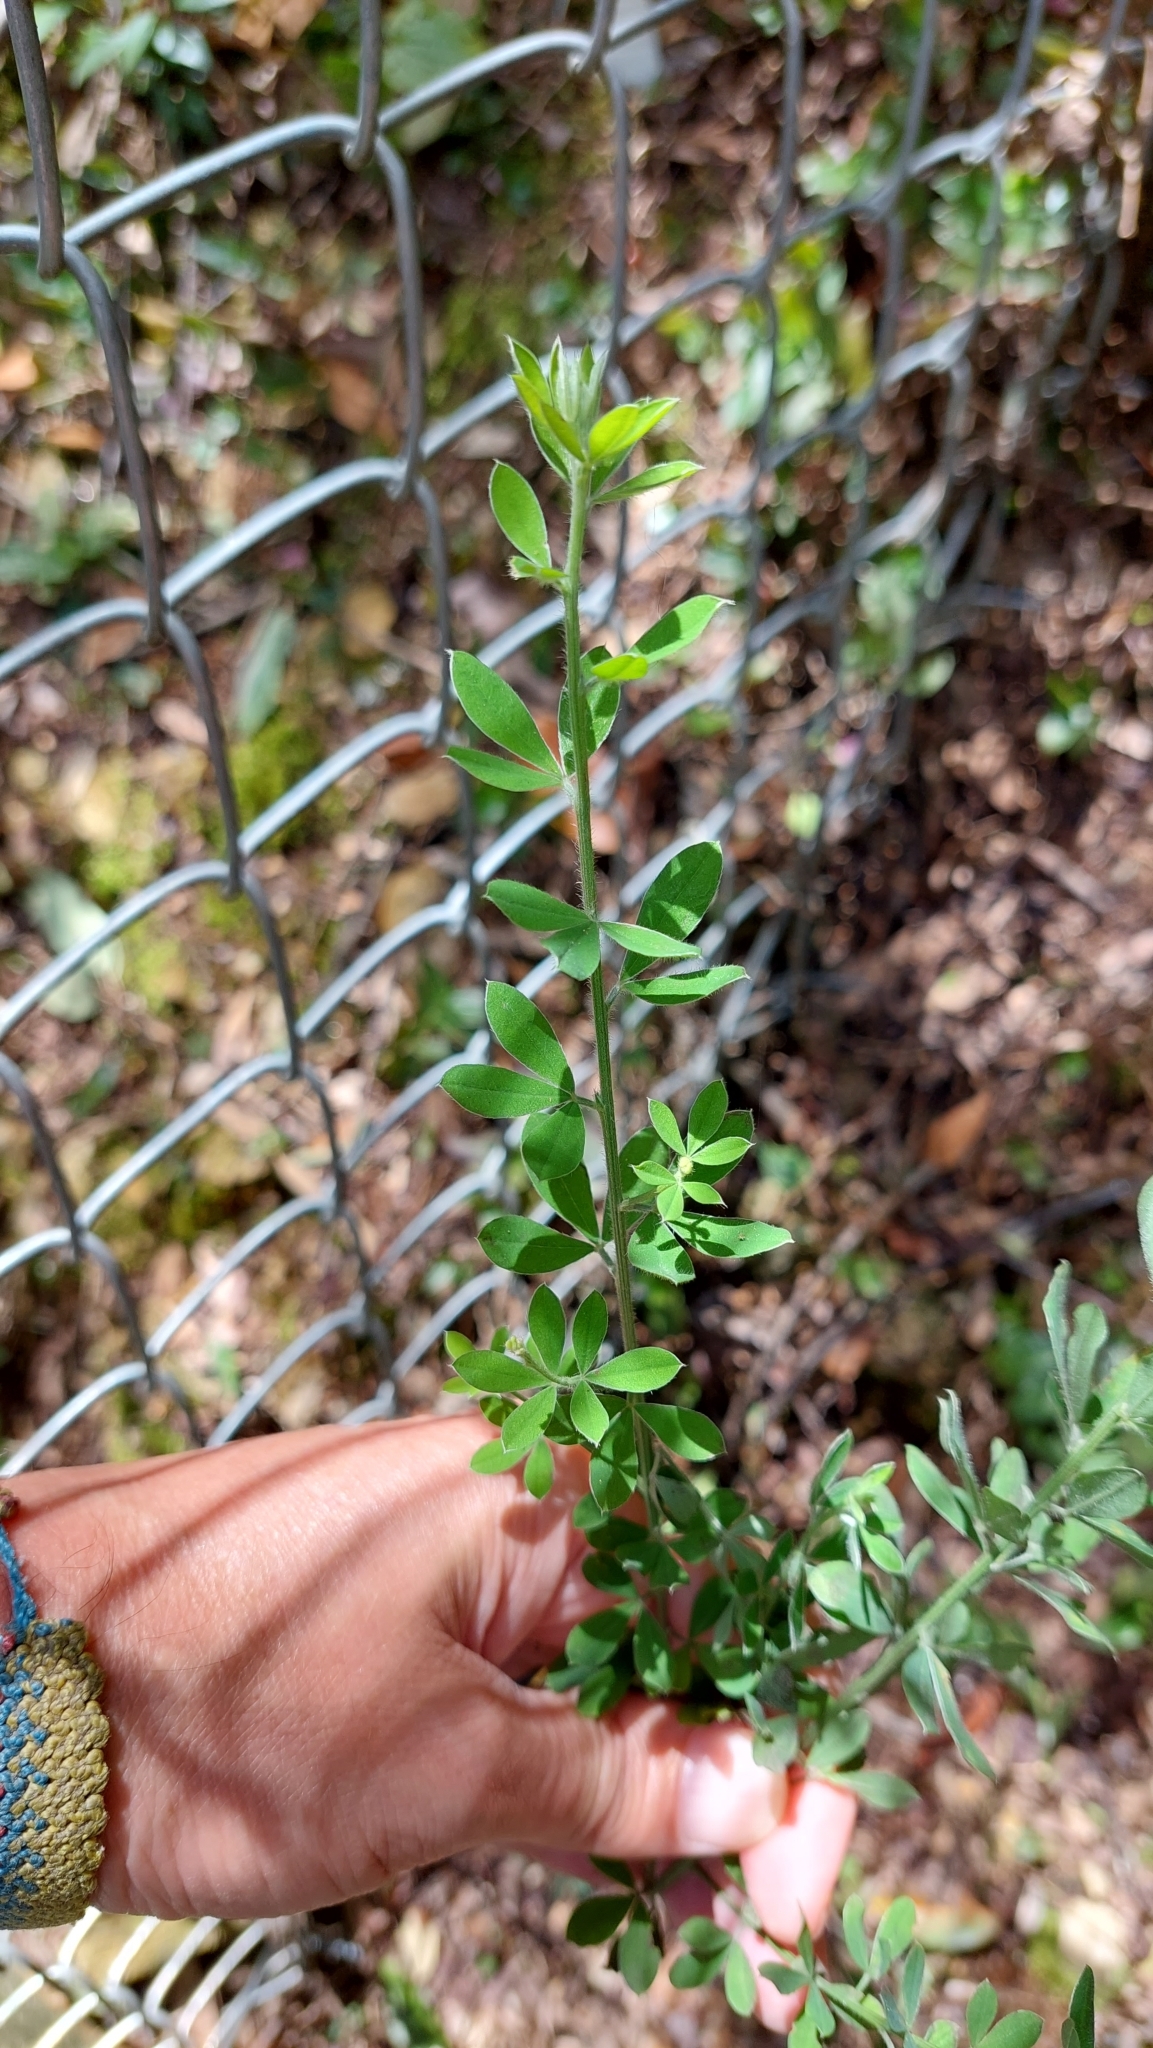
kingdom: Plantae
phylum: Tracheophyta
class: Magnoliopsida
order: Fabales
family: Fabaceae
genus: Genista
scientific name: Genista monspessulana
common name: Montpellier broom
